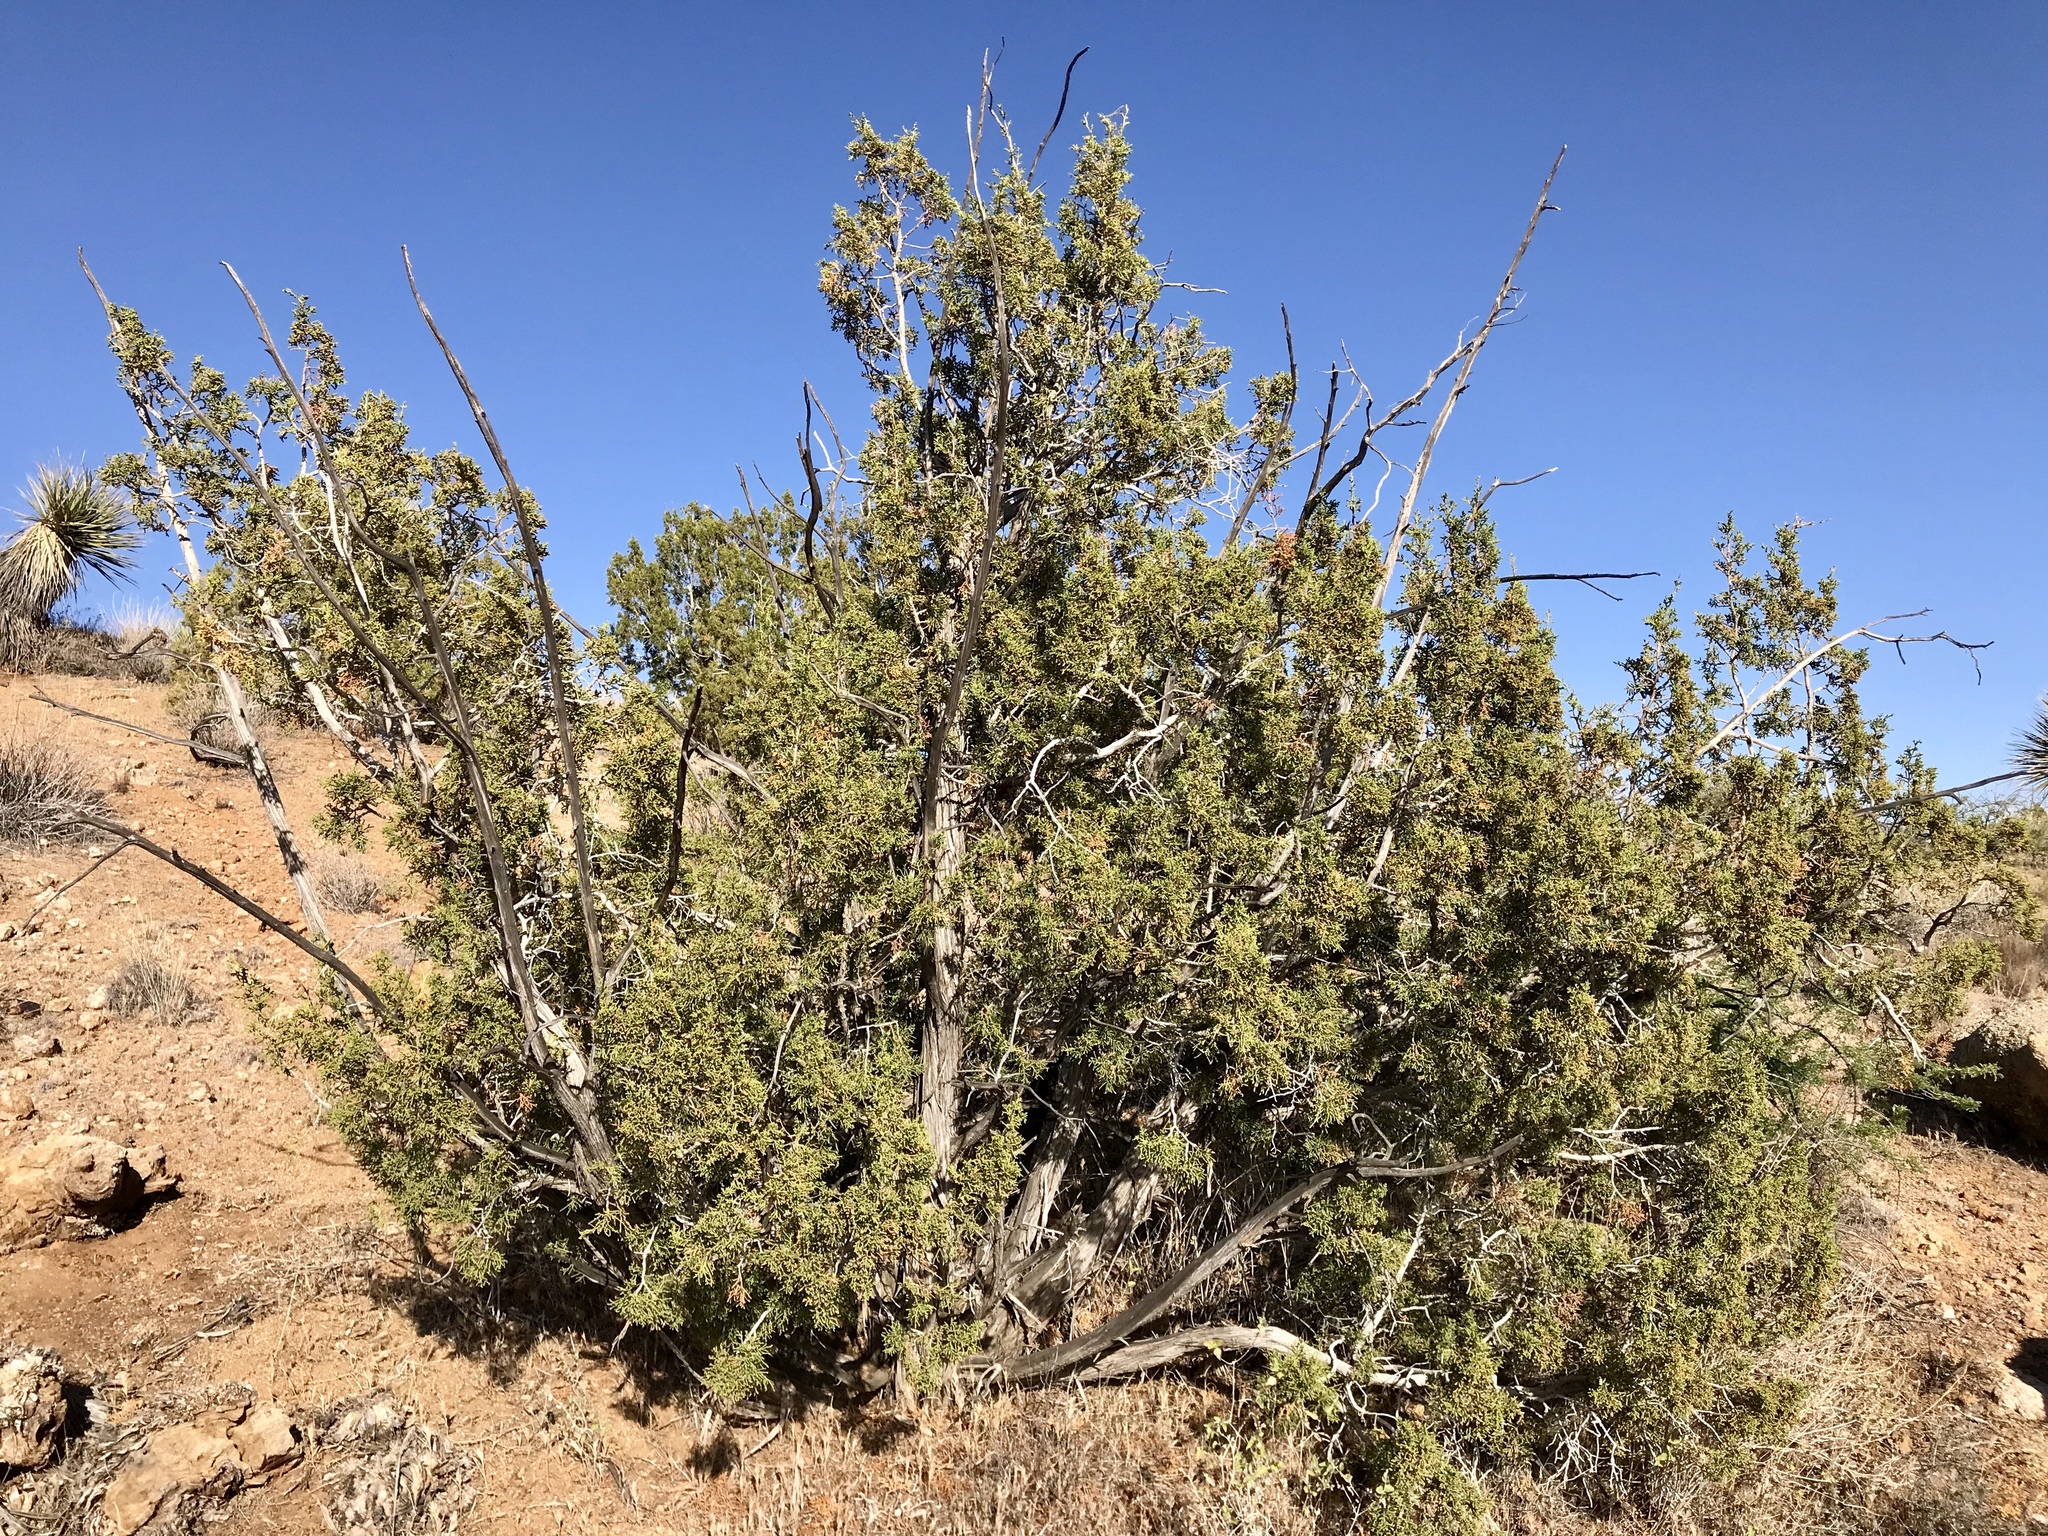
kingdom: Plantae
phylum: Tracheophyta
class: Pinopsida
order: Pinales
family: Cupressaceae
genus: Juniperus
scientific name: Juniperus californica
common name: California juniper
